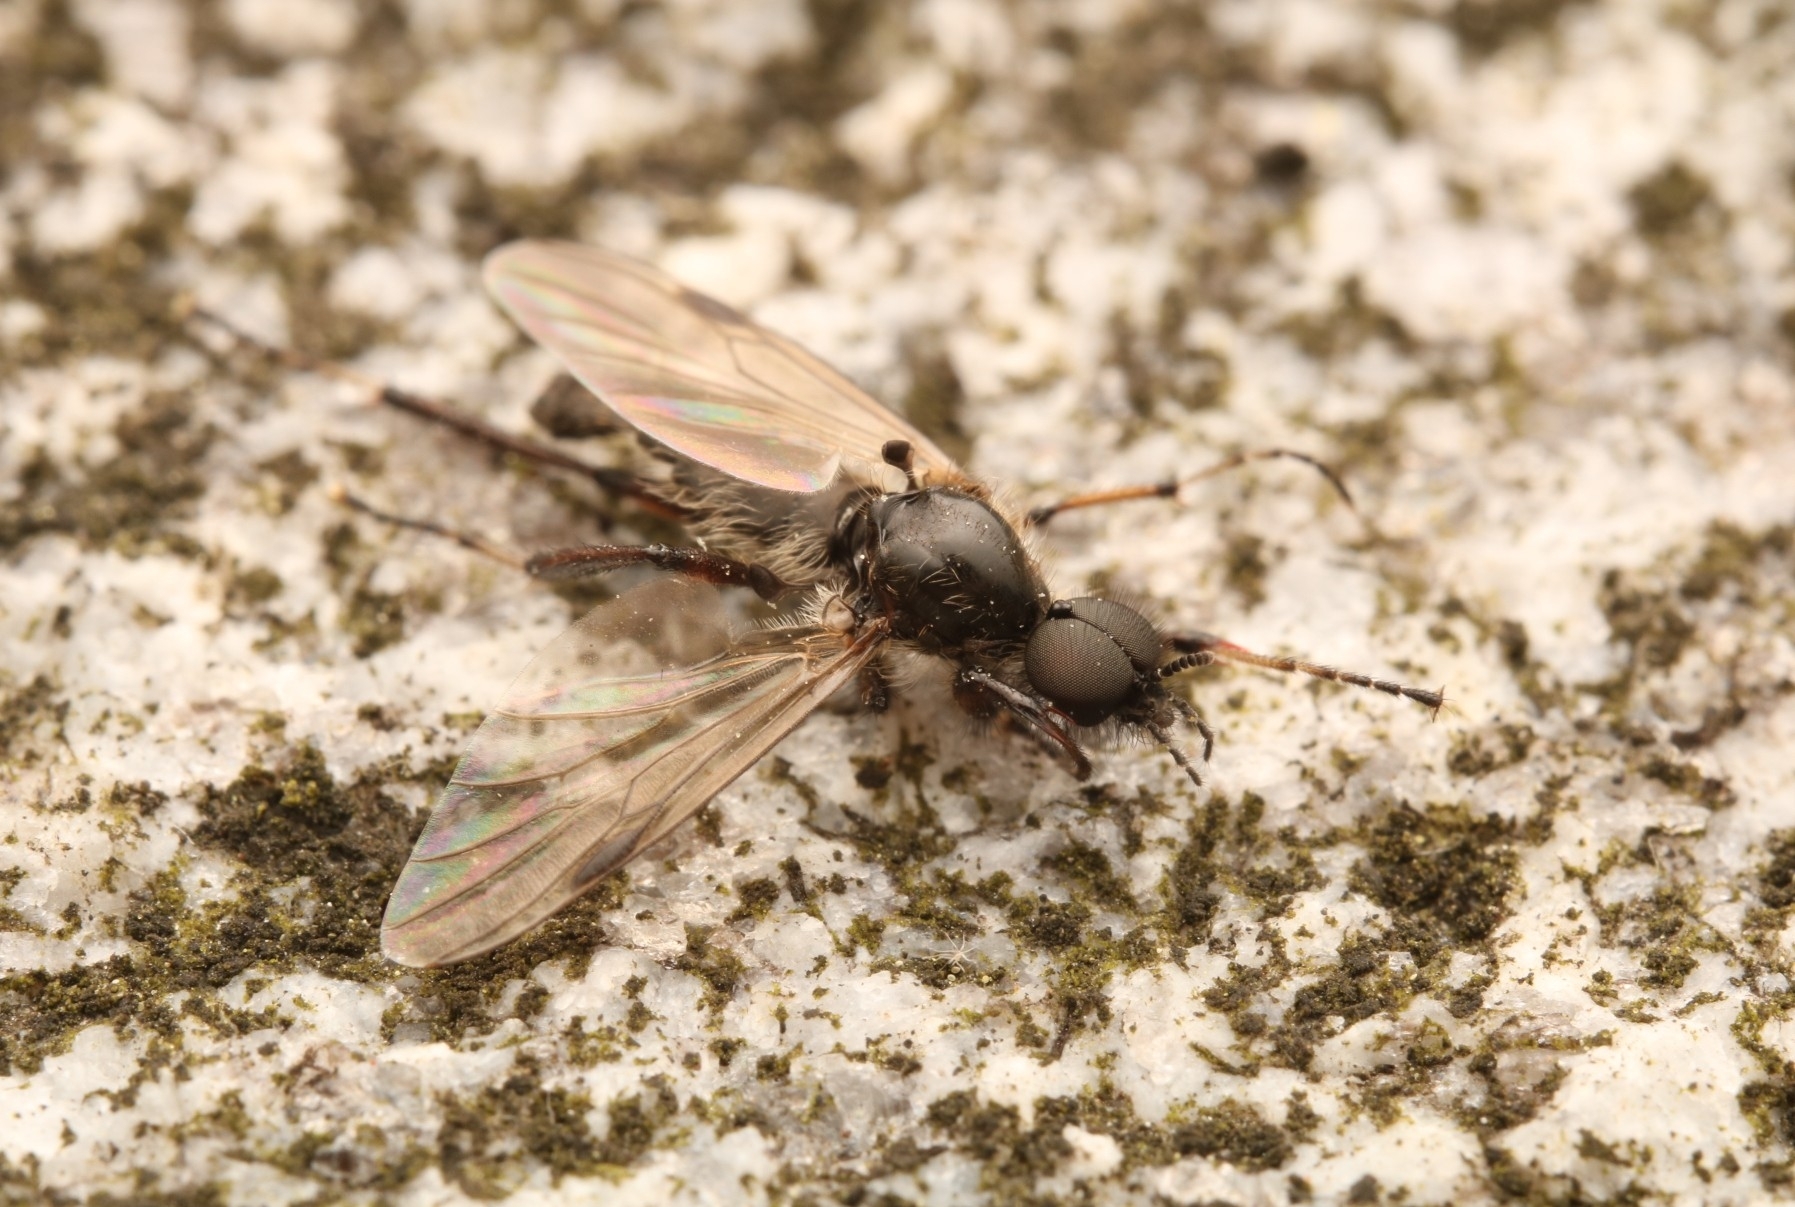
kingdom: Animalia
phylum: Arthropoda
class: Insecta
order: Diptera
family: Bibionidae
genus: Bibio
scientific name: Bibio articulatus
